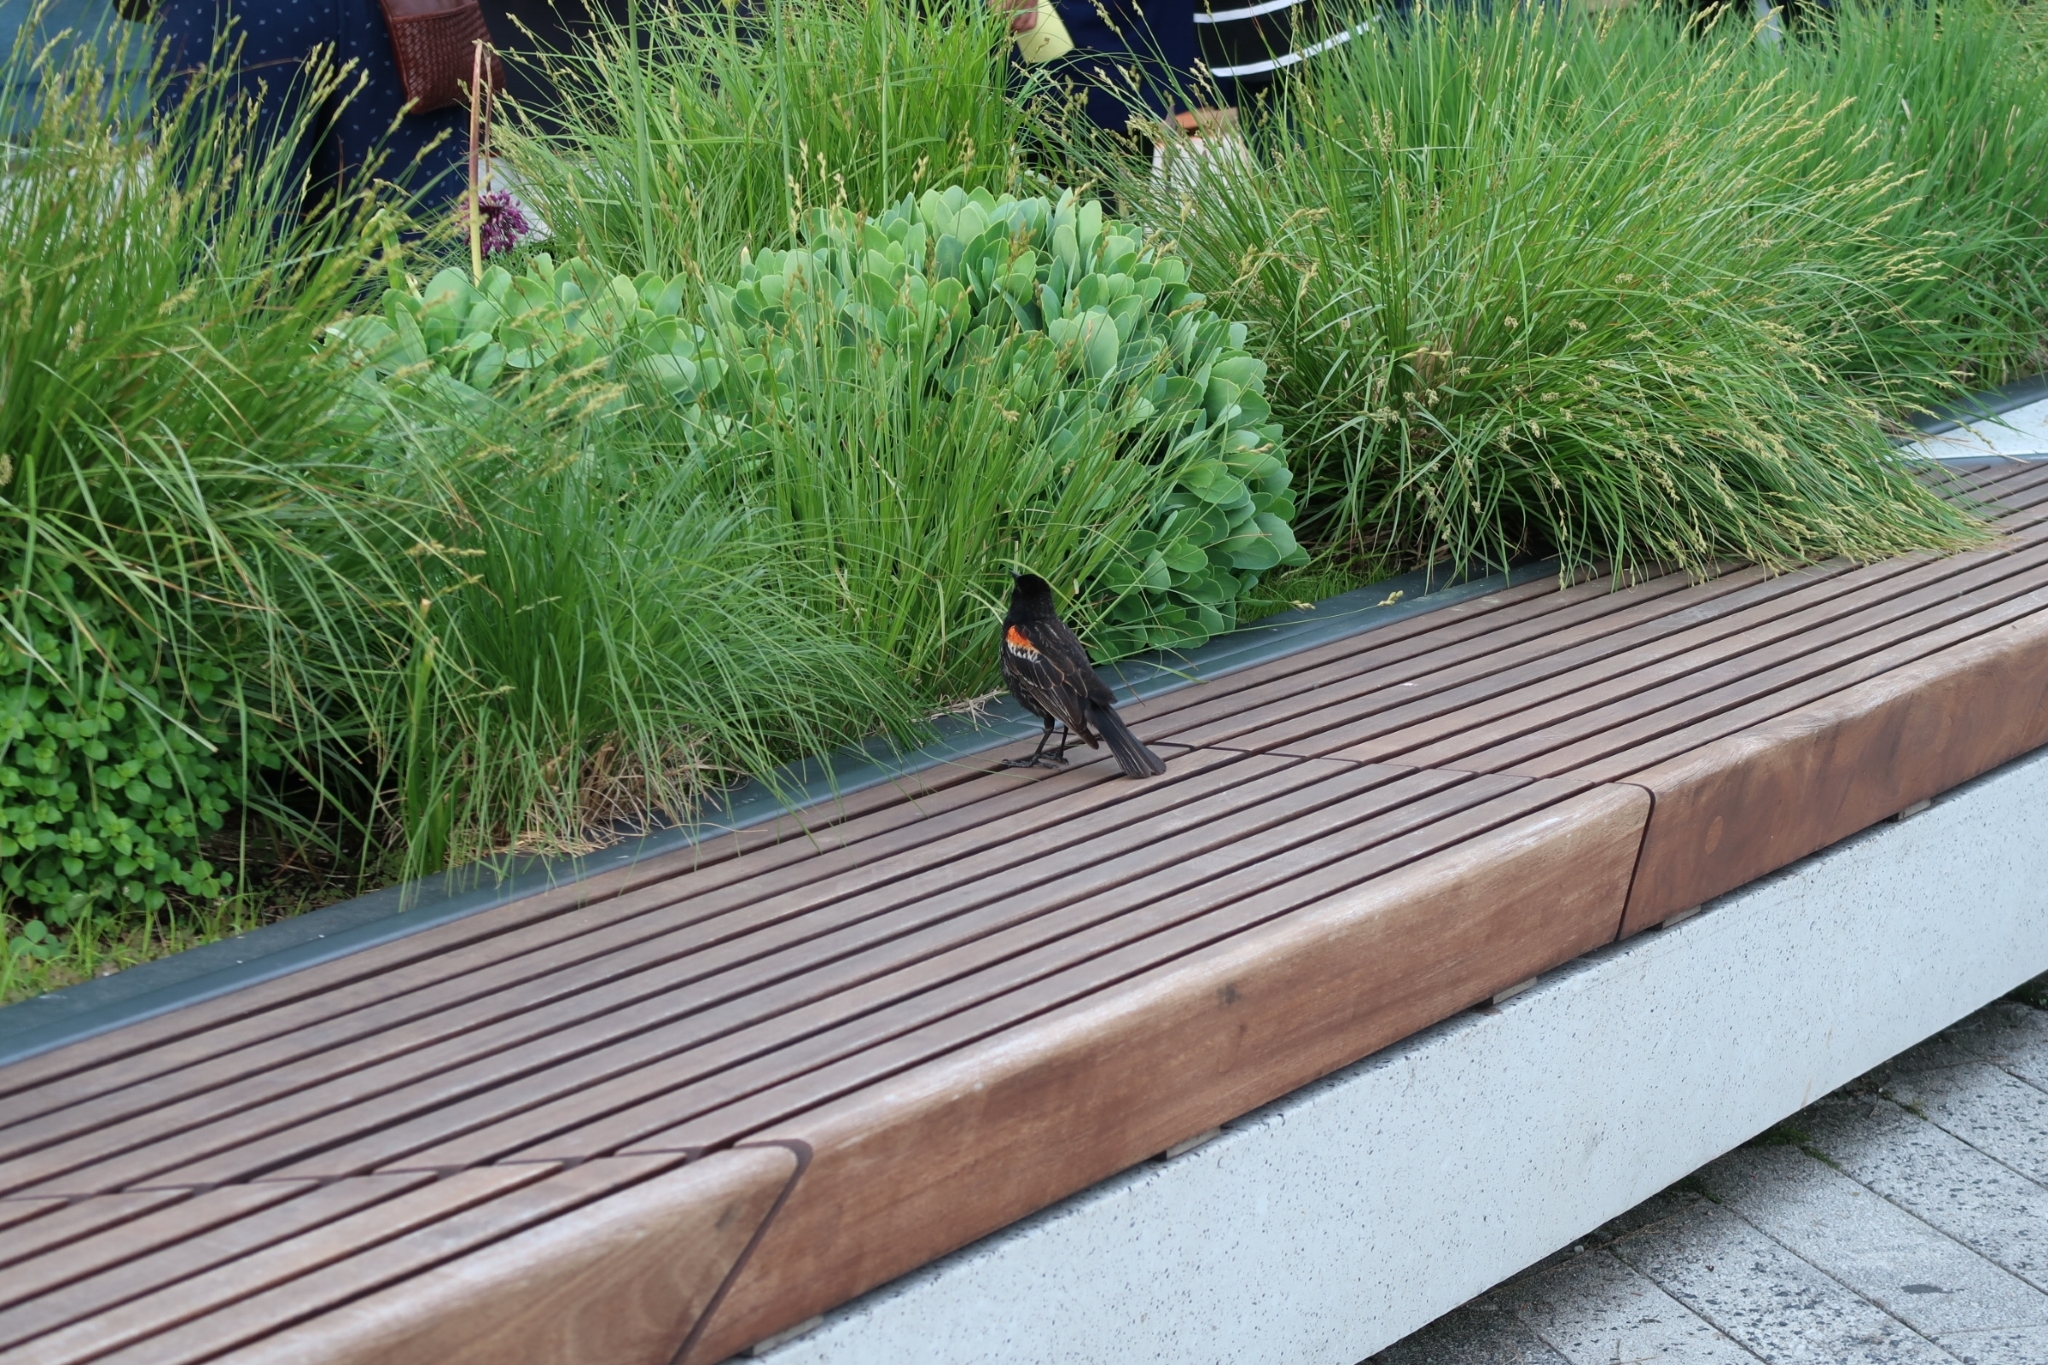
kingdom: Animalia
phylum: Chordata
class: Aves
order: Passeriformes
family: Icteridae
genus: Agelaius
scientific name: Agelaius phoeniceus
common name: Red-winged blackbird
